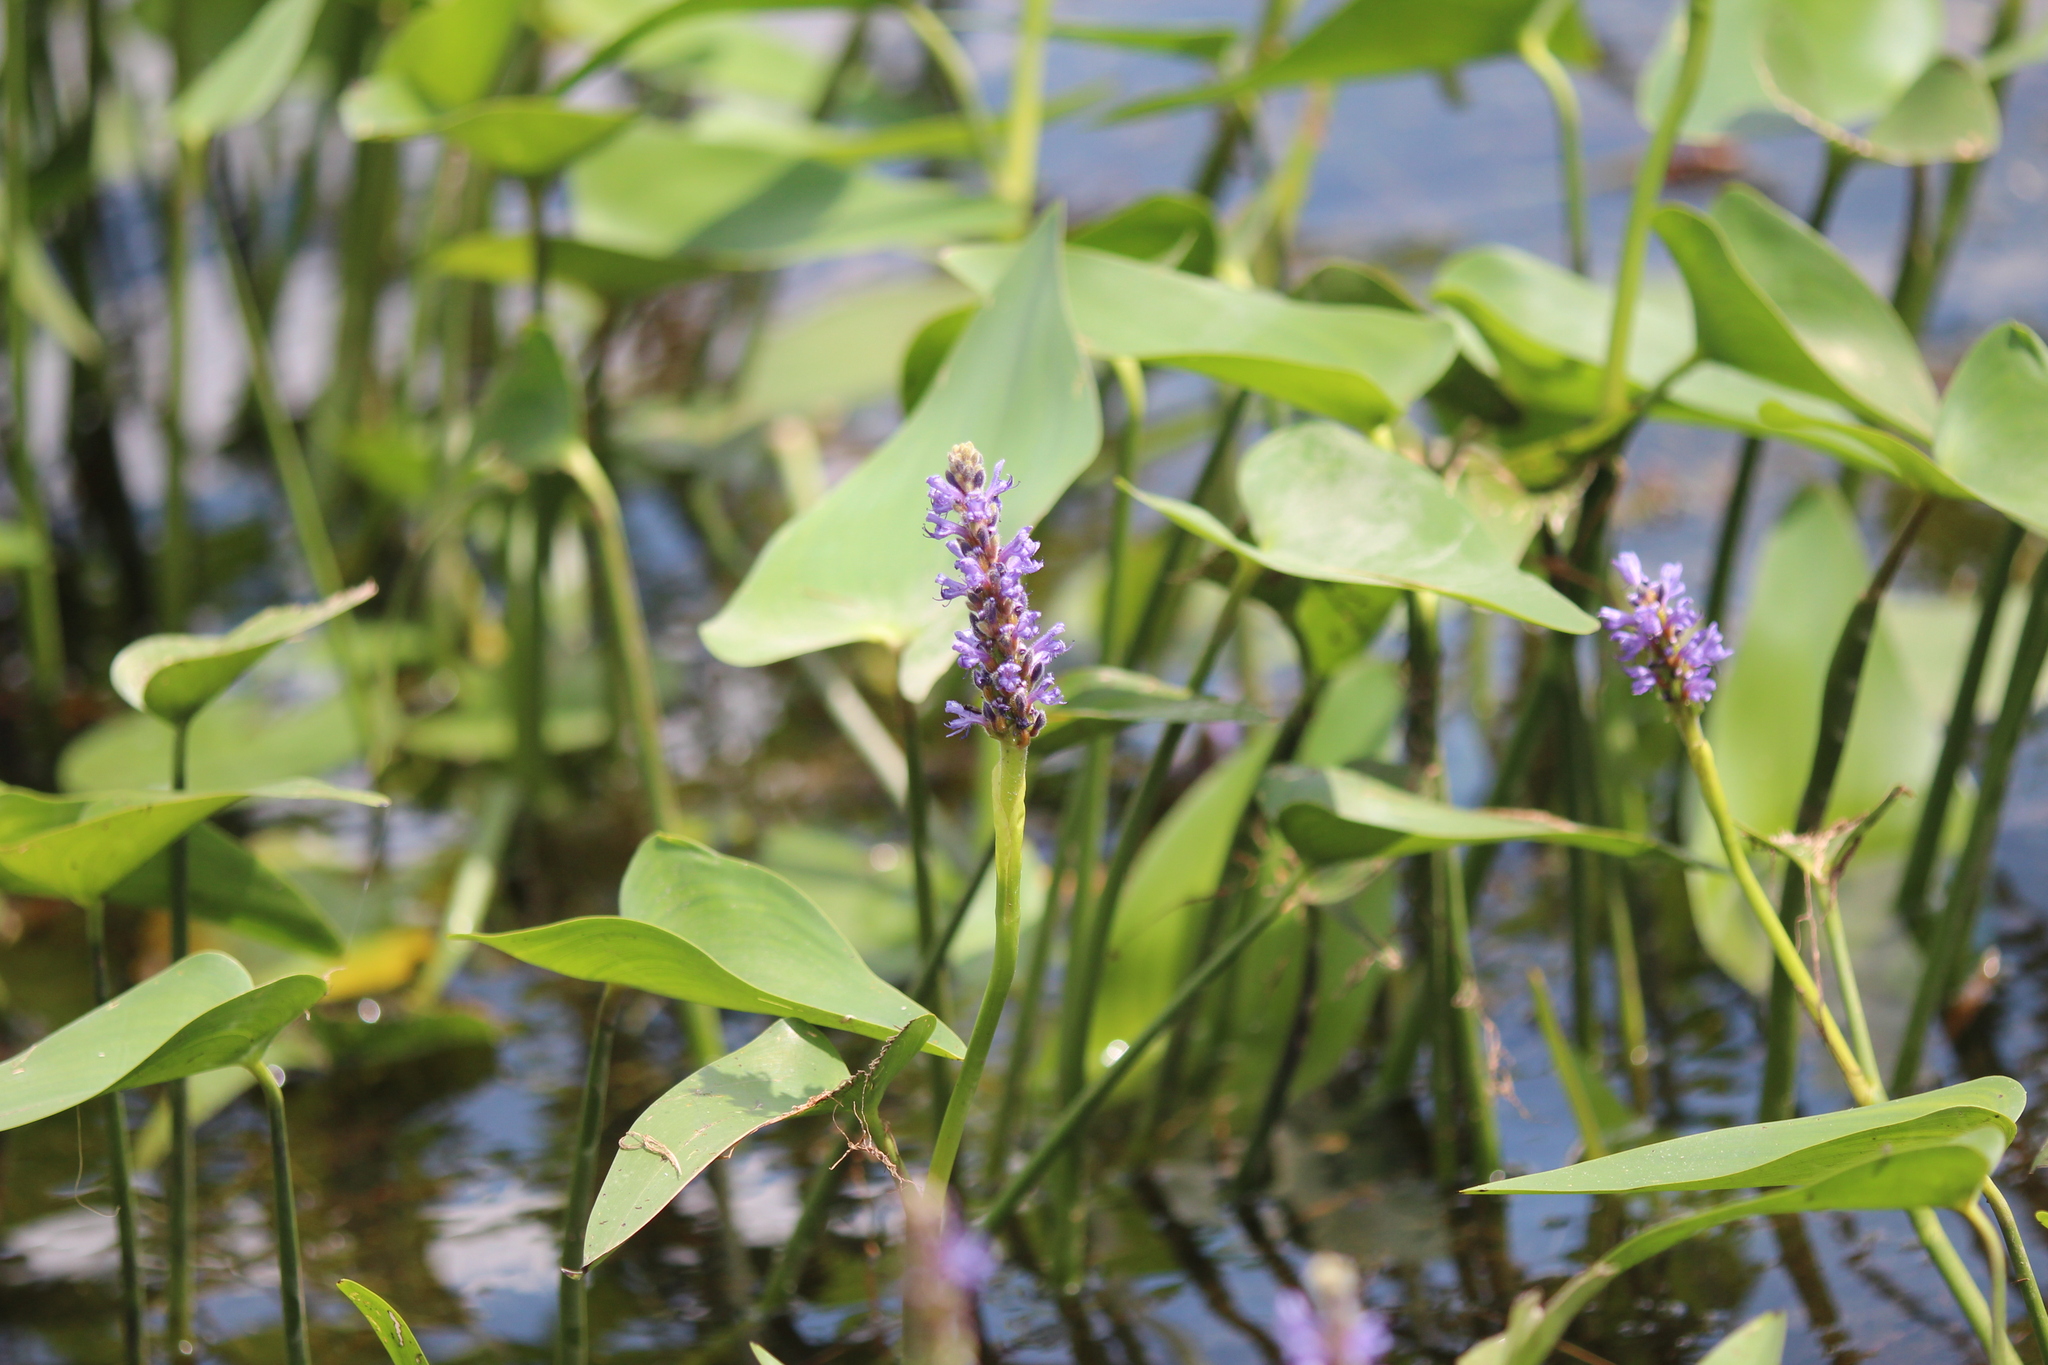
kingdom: Plantae
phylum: Tracheophyta
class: Liliopsida
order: Commelinales
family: Pontederiaceae
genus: Pontederia
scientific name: Pontederia cordata
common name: Pickerelweed
